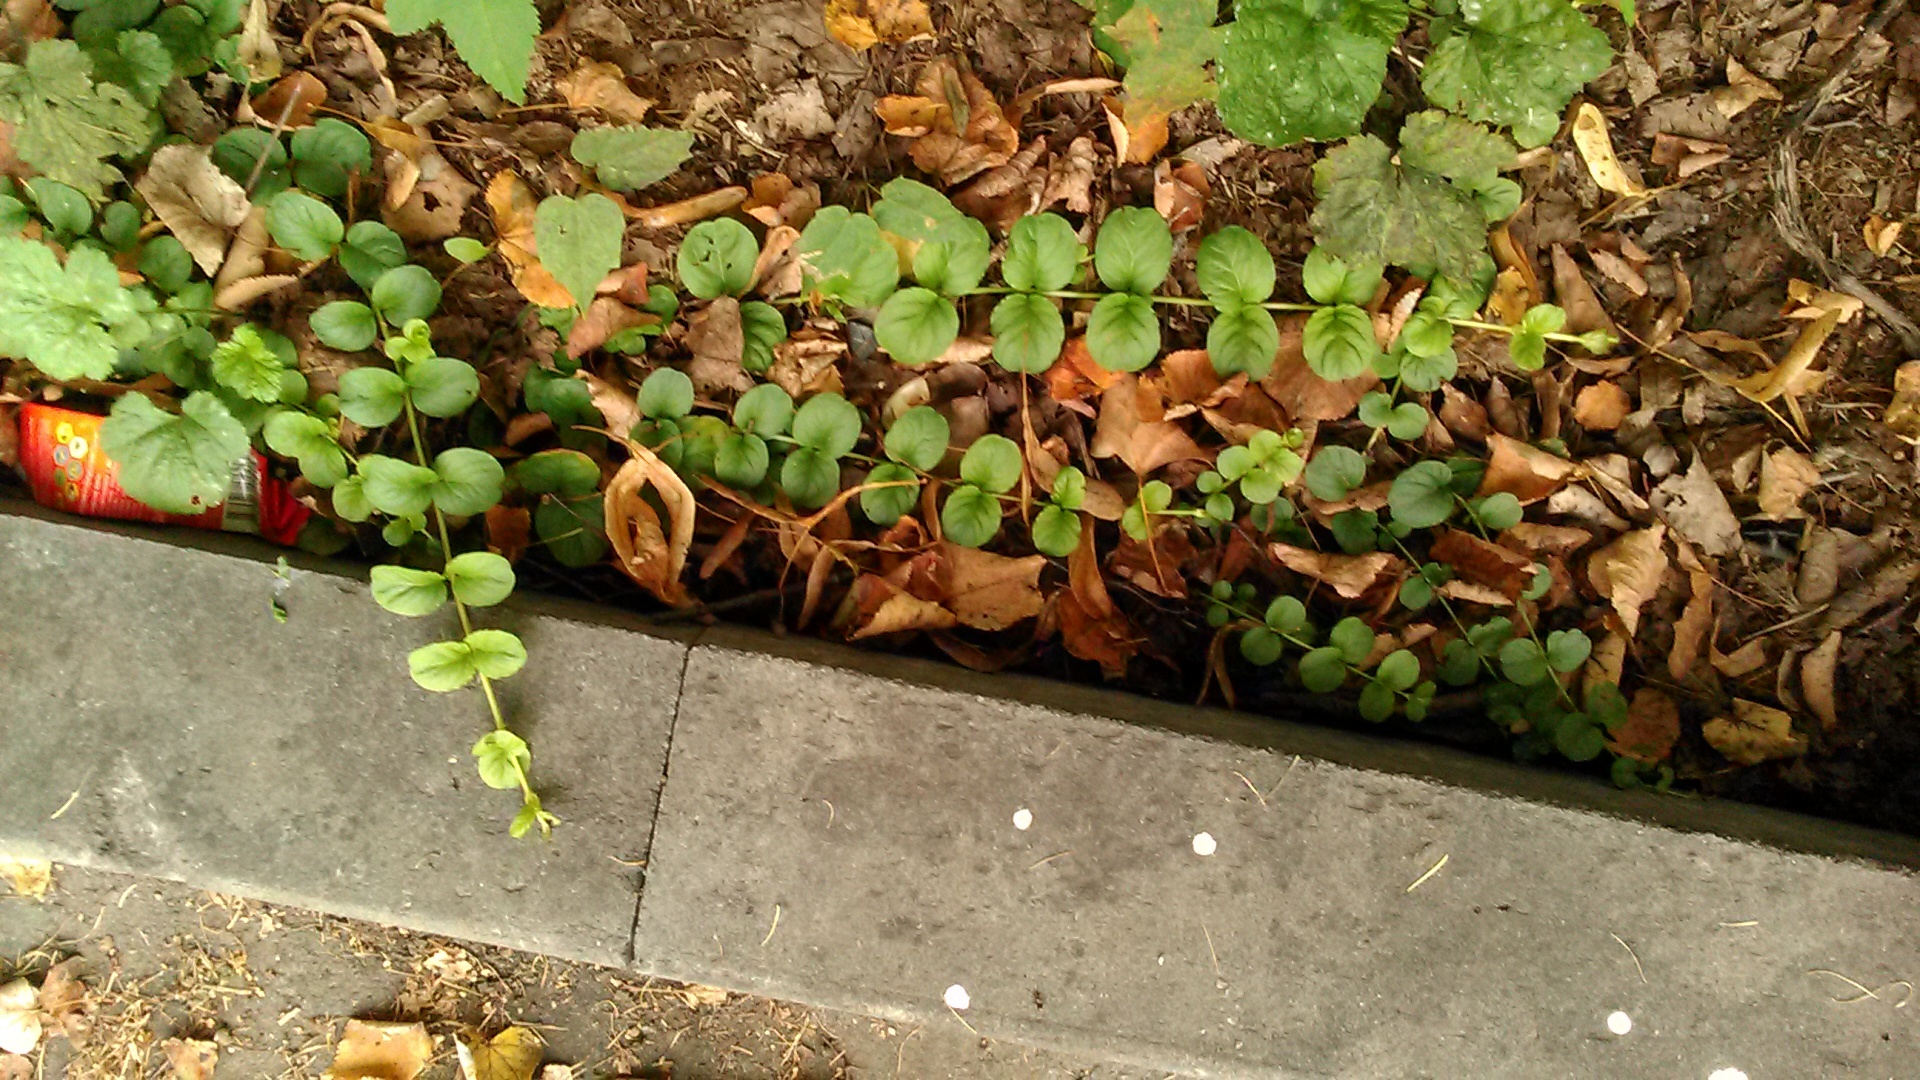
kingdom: Plantae
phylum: Tracheophyta
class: Magnoliopsida
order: Ericales
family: Primulaceae
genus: Lysimachia
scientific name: Lysimachia nummularia
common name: Moneywort
